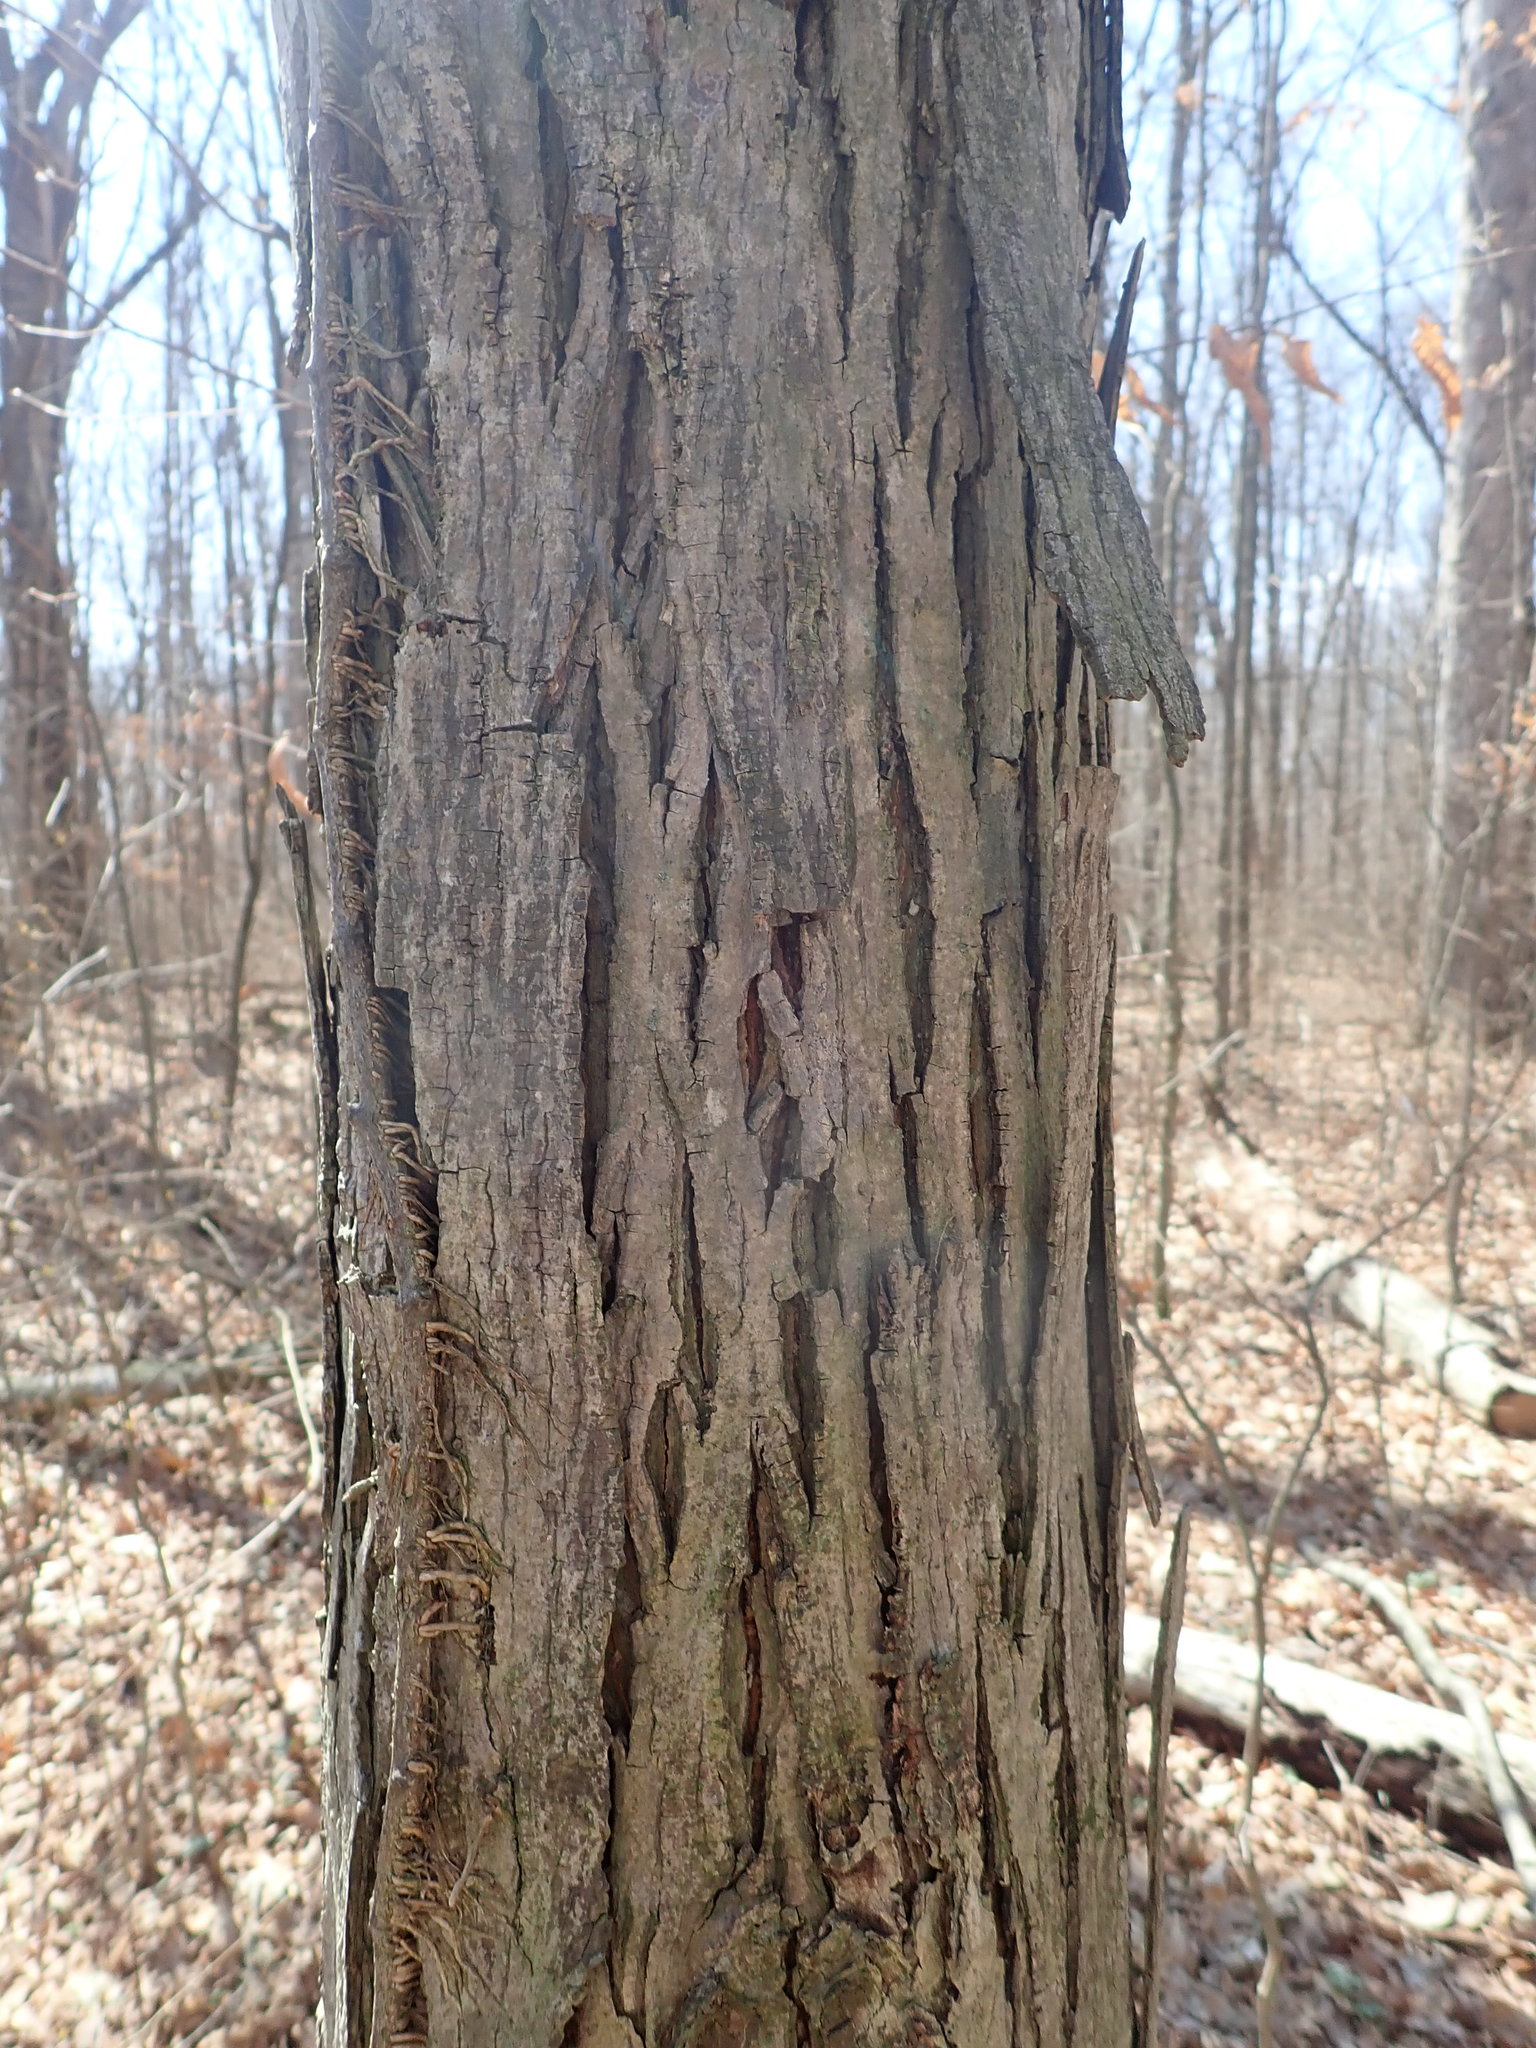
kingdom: Plantae
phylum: Tracheophyta
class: Magnoliopsida
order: Fagales
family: Juglandaceae
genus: Carya
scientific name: Carya ovata
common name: Shagbark hickory
